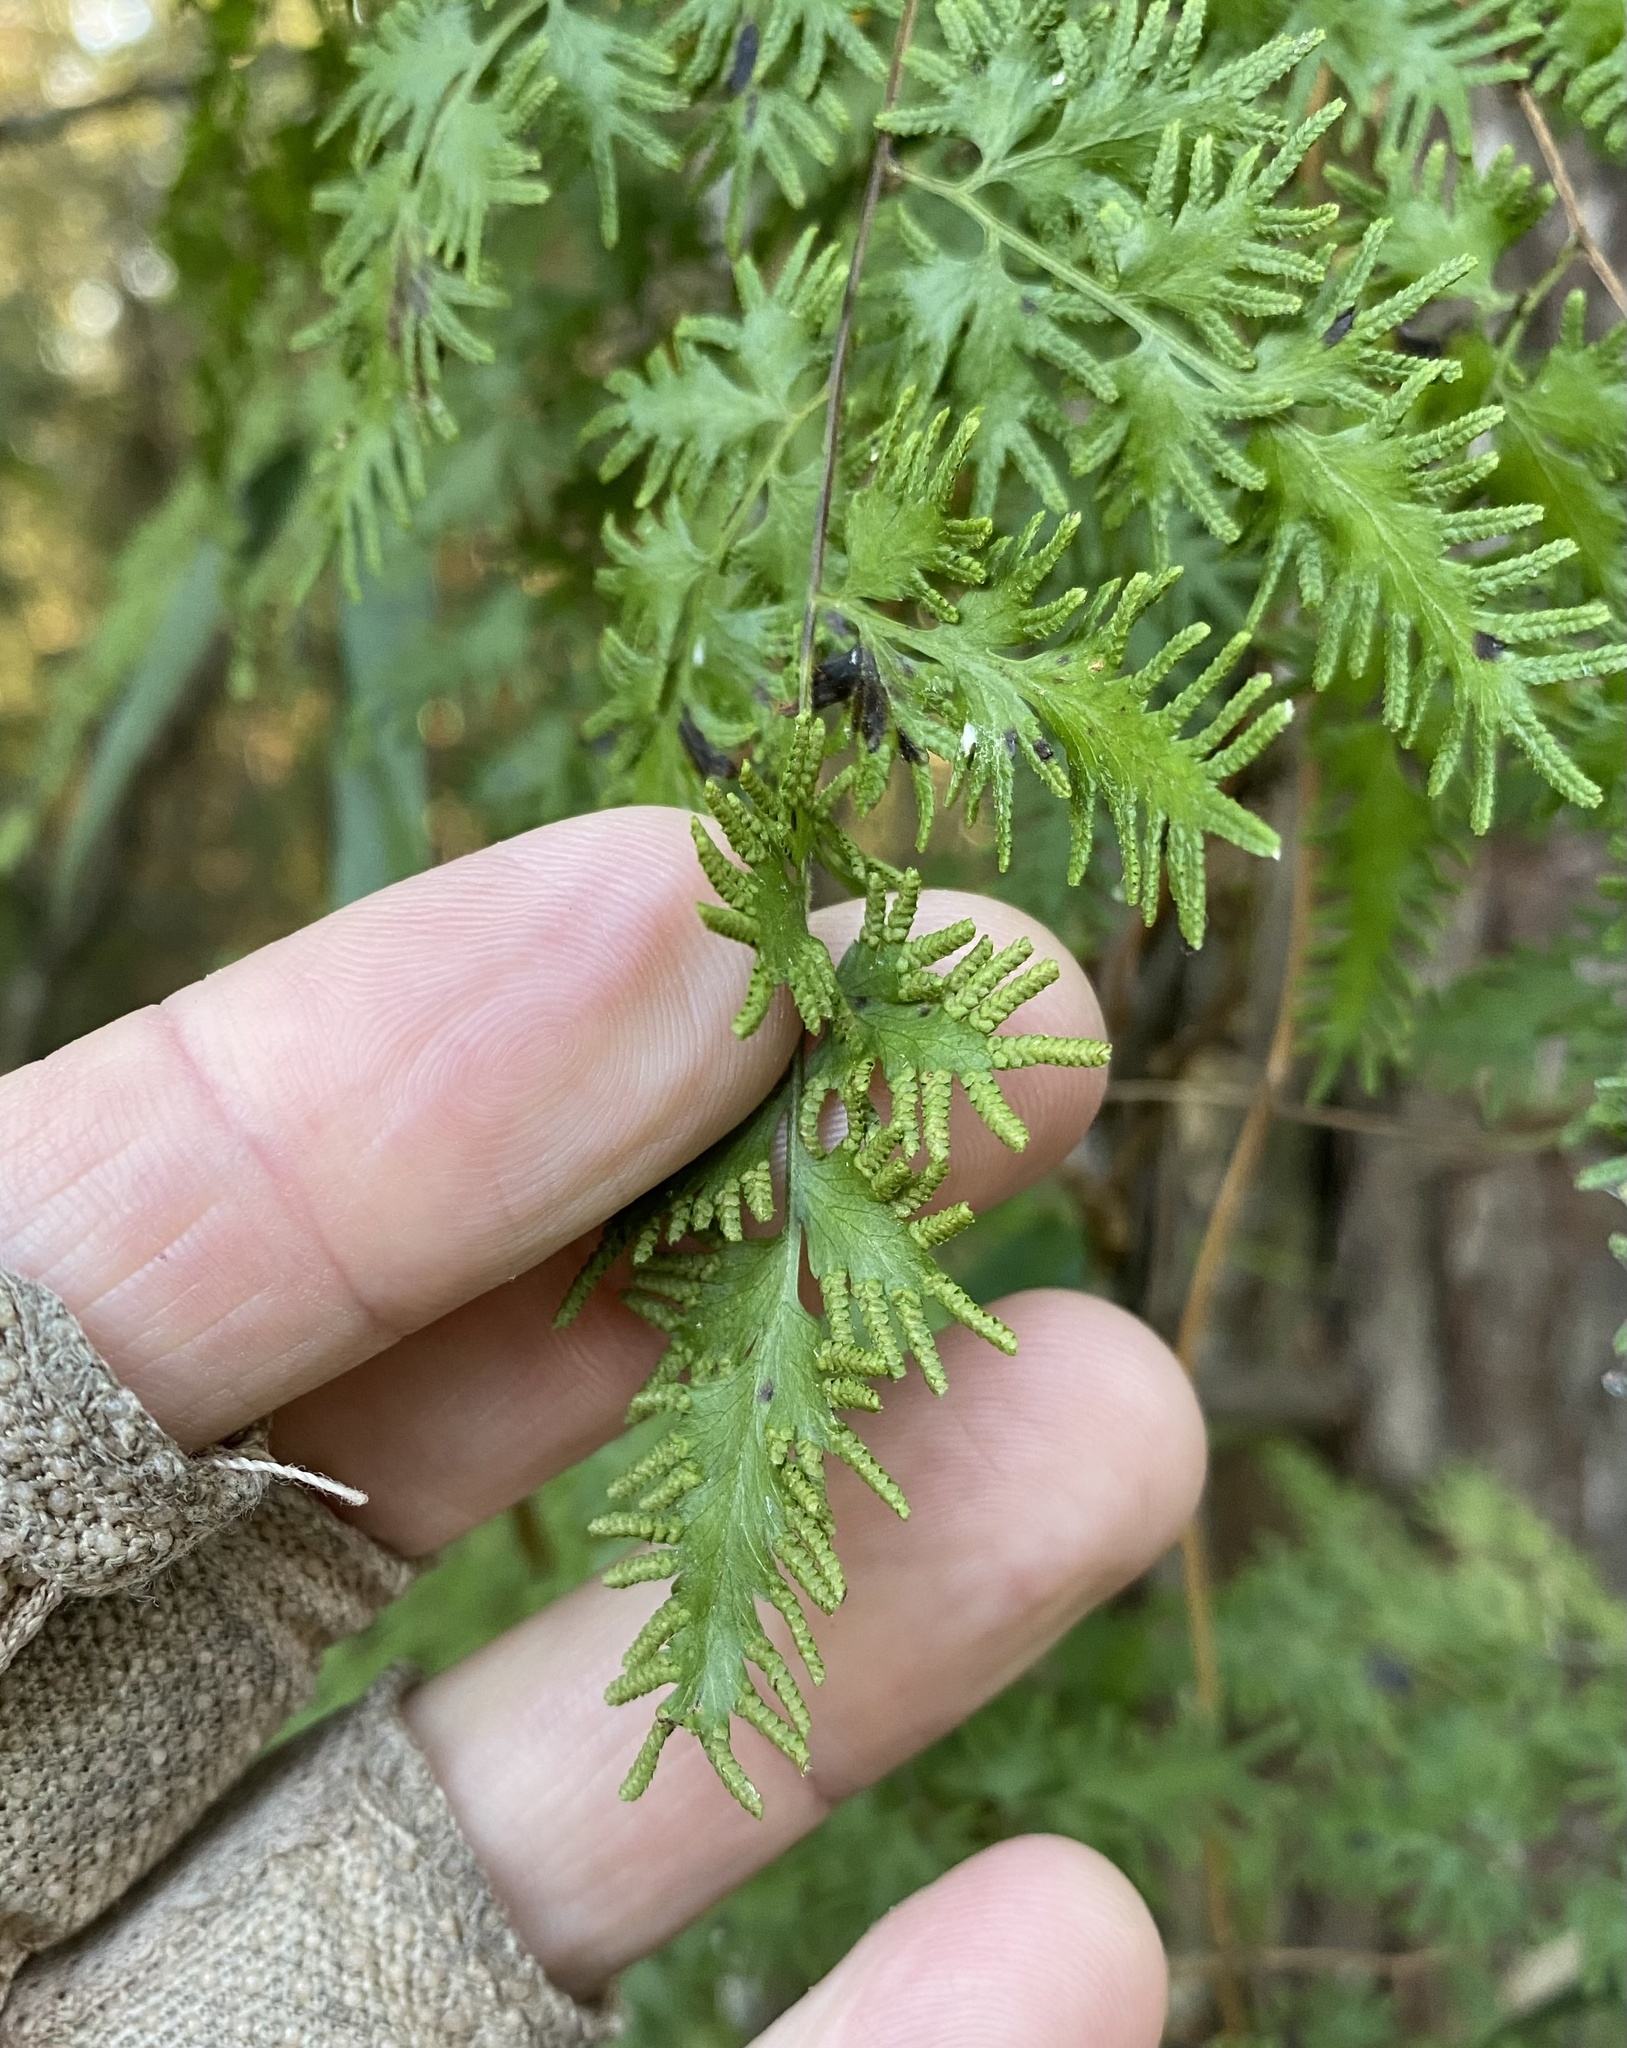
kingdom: Plantae
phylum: Tracheophyta
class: Polypodiopsida
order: Schizaeales
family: Lygodiaceae
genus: Lygodium
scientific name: Lygodium japonicum
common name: Japanese climbing fern
